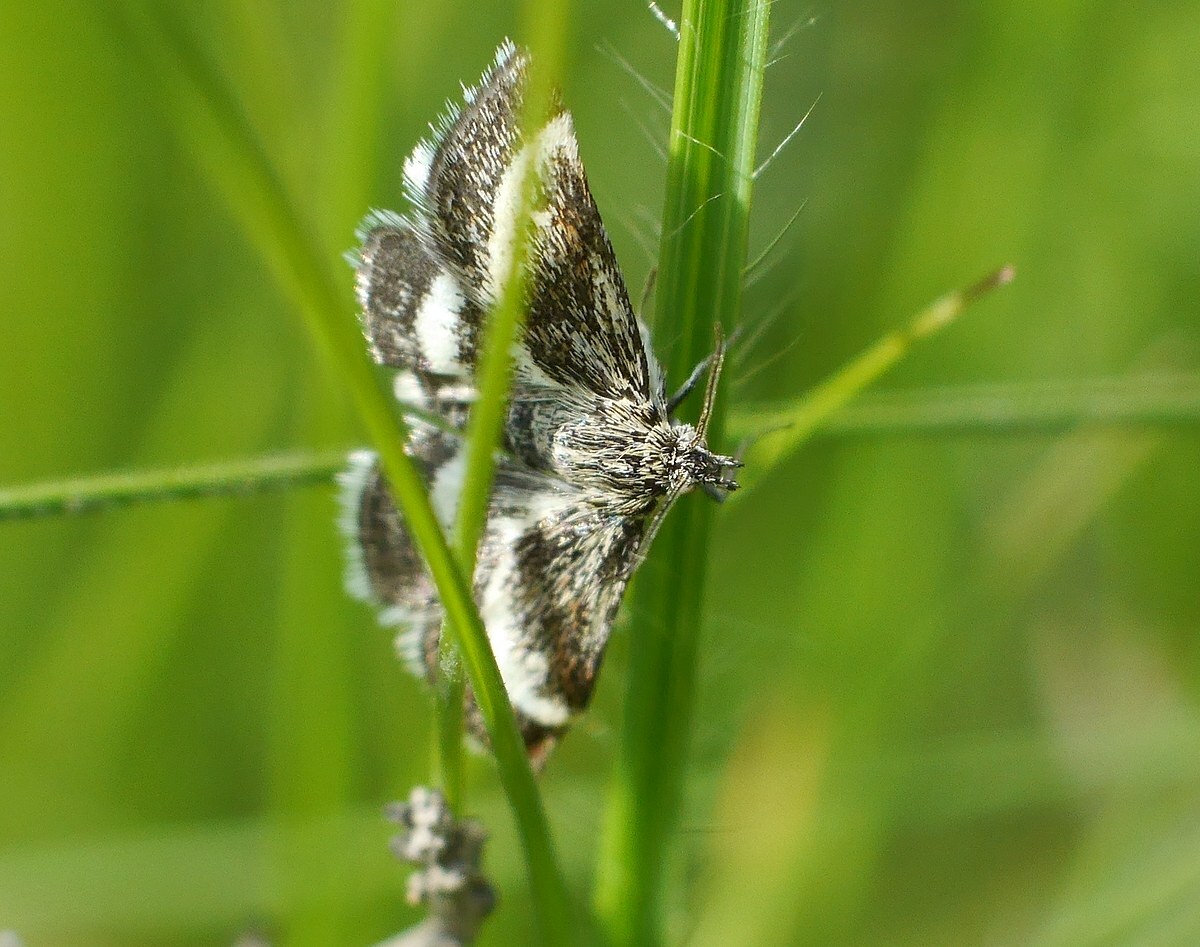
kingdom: Animalia
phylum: Arthropoda
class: Insecta
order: Lepidoptera
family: Crambidae
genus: Atralata
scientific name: Atralata albofascialis
